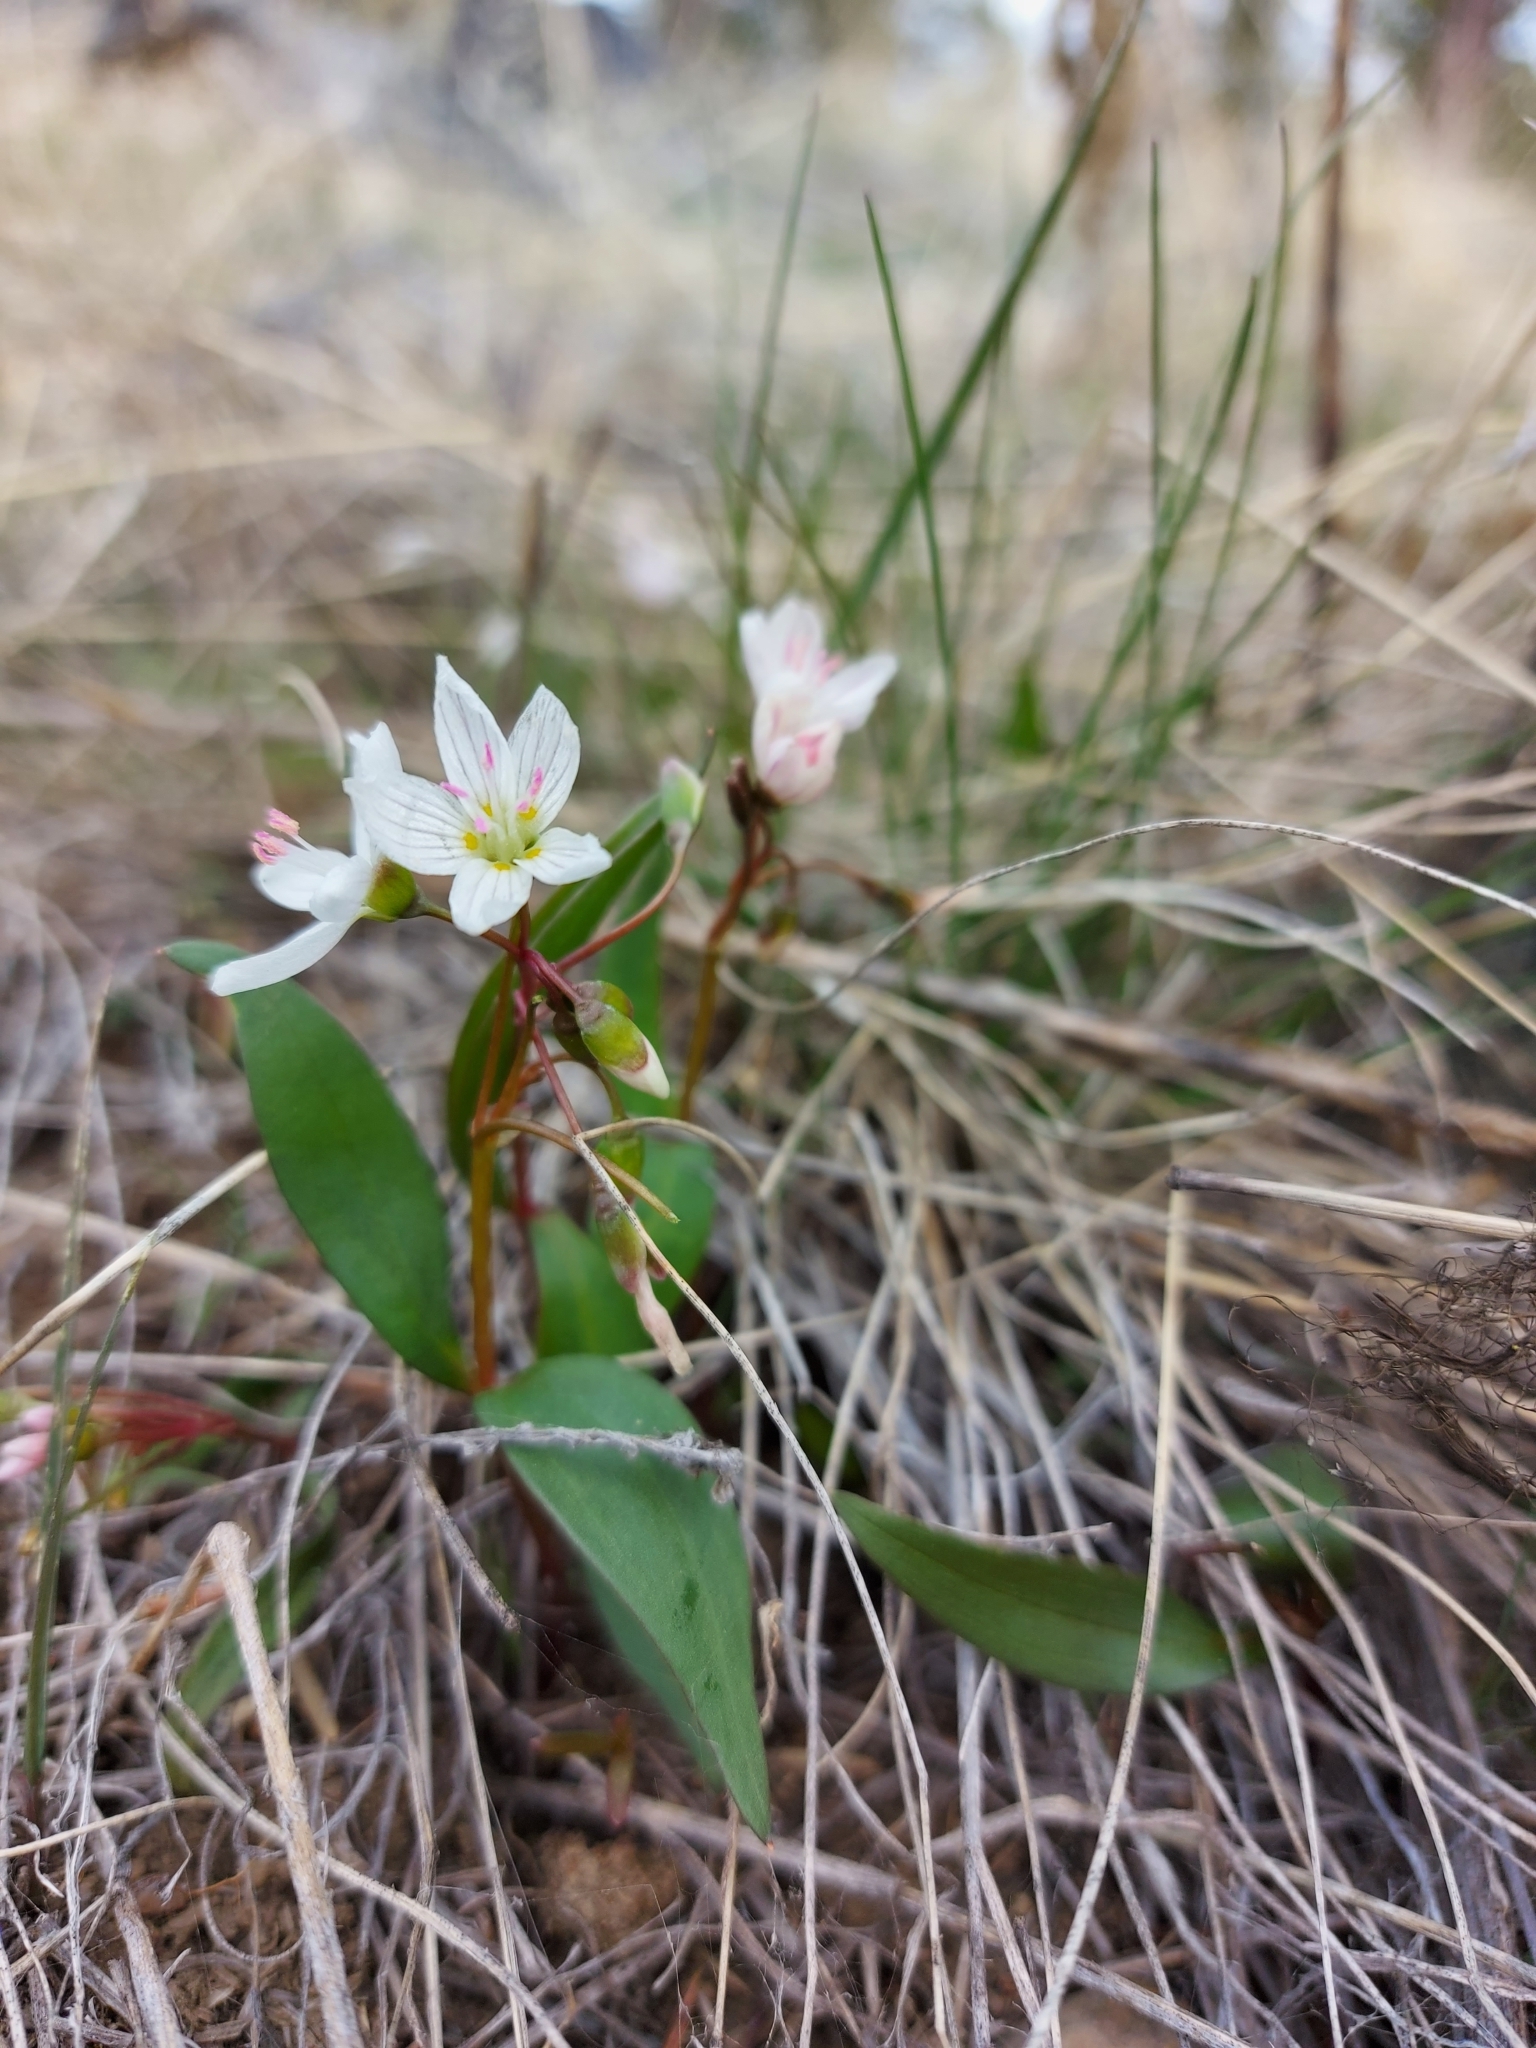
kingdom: Plantae
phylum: Tracheophyta
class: Magnoliopsida
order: Caryophyllales
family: Montiaceae
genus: Claytonia
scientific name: Claytonia lanceolata
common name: Western spring-beauty
